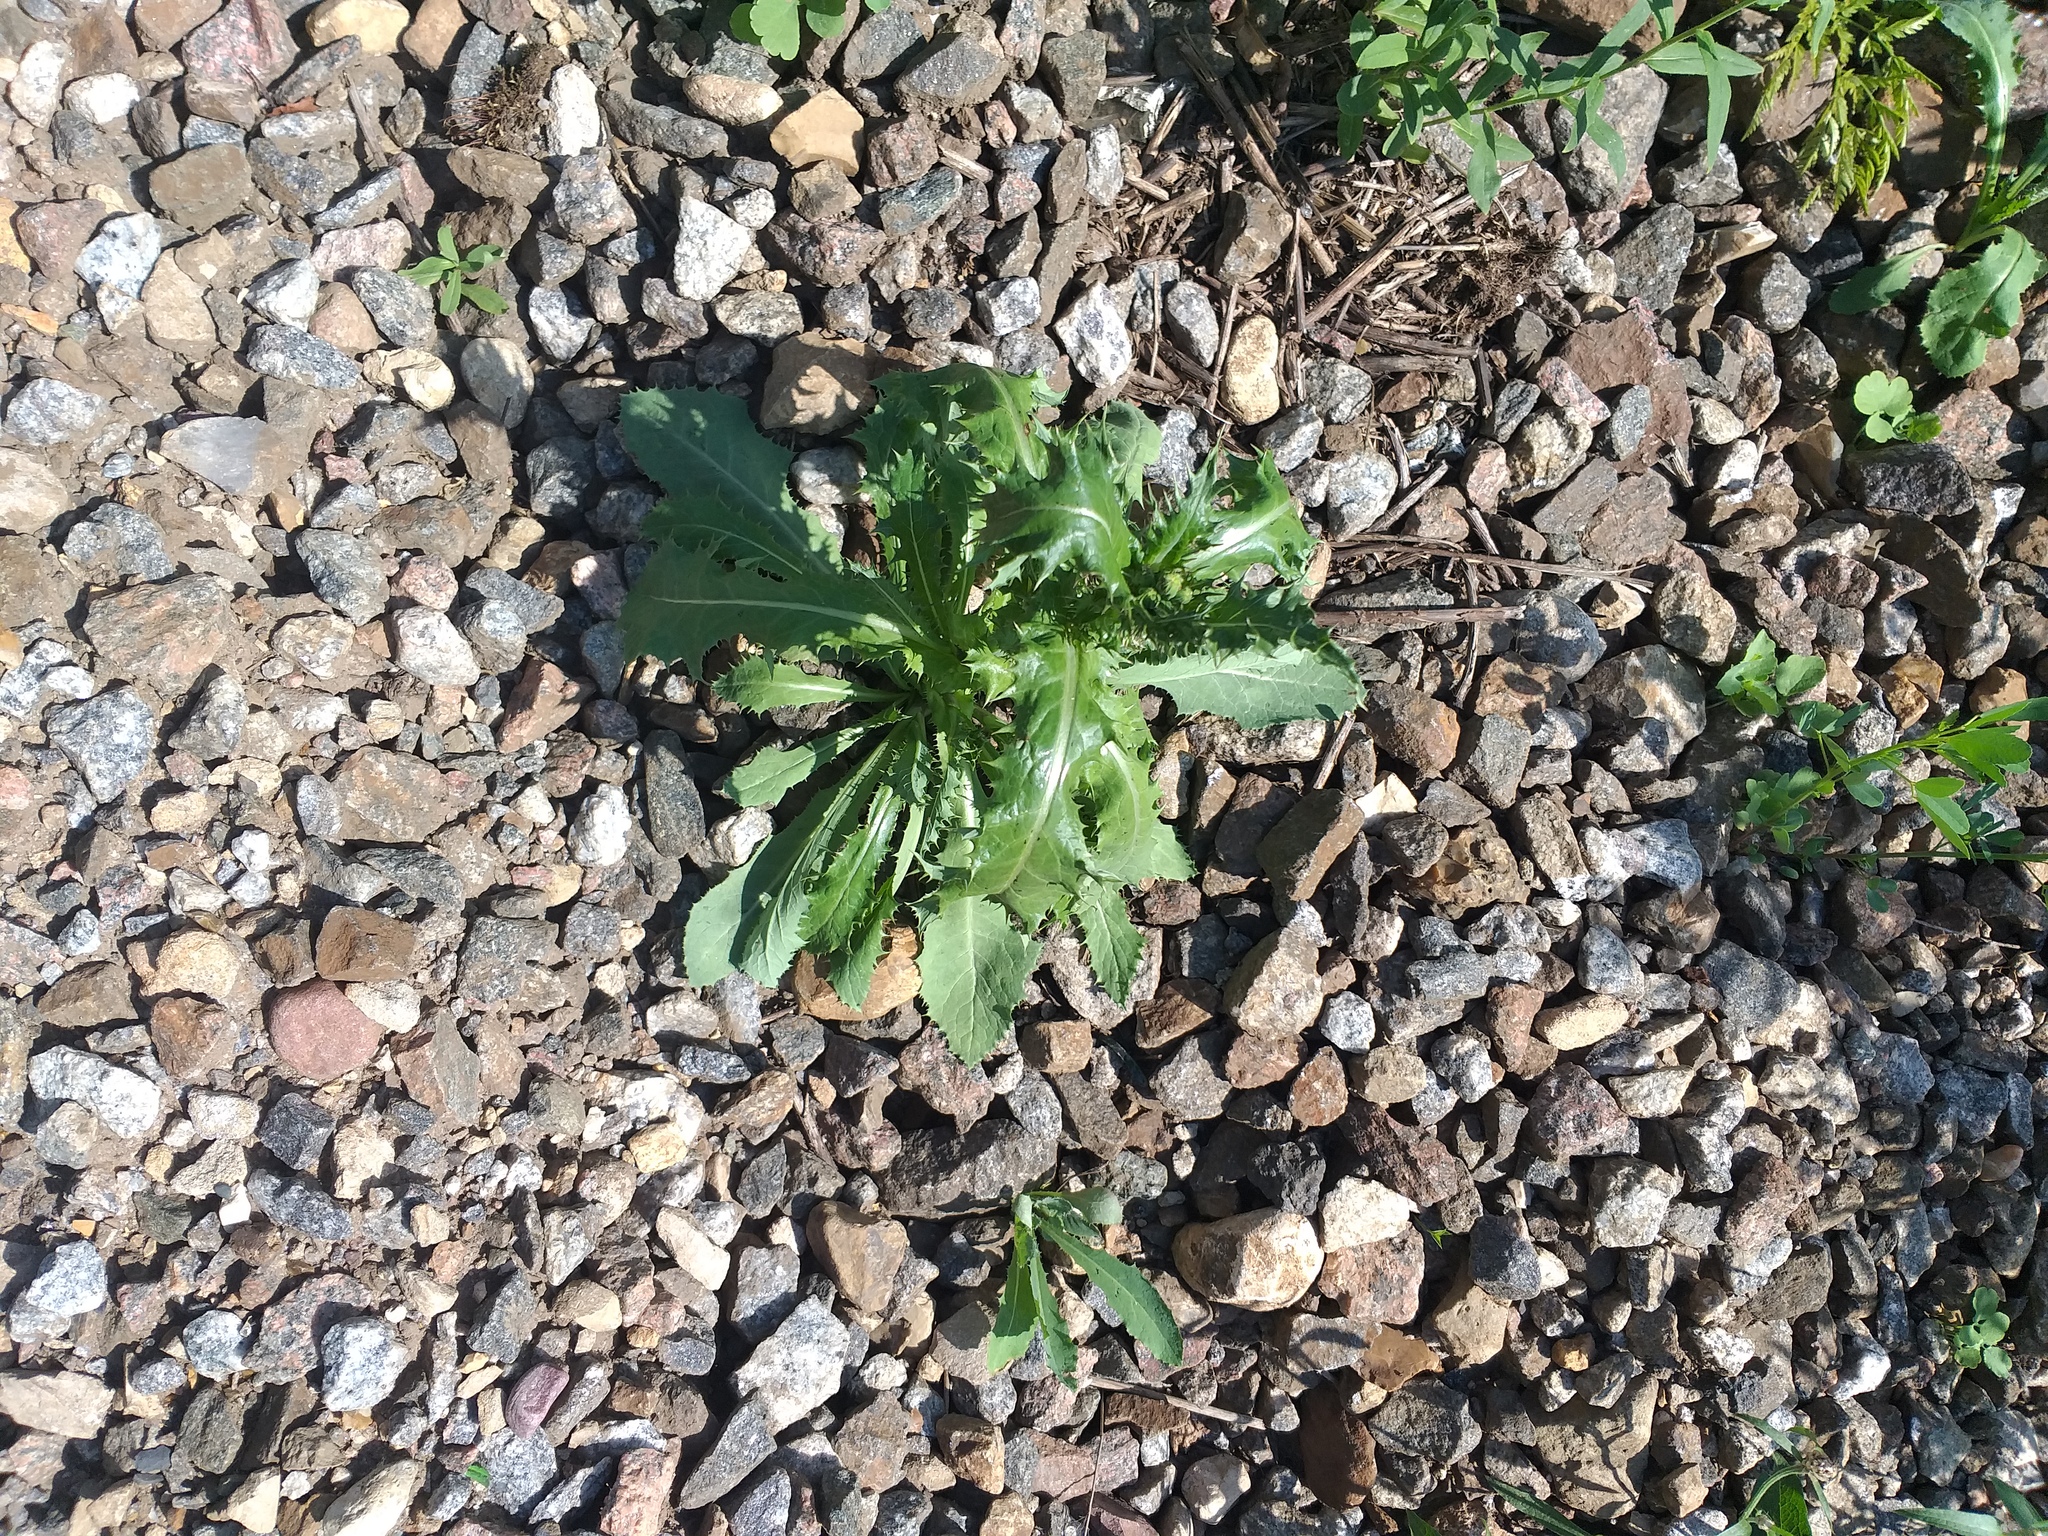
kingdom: Plantae
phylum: Tracheophyta
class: Magnoliopsida
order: Asterales
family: Asteraceae
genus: Sonchus
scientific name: Sonchus asper
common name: Prickly sow-thistle
